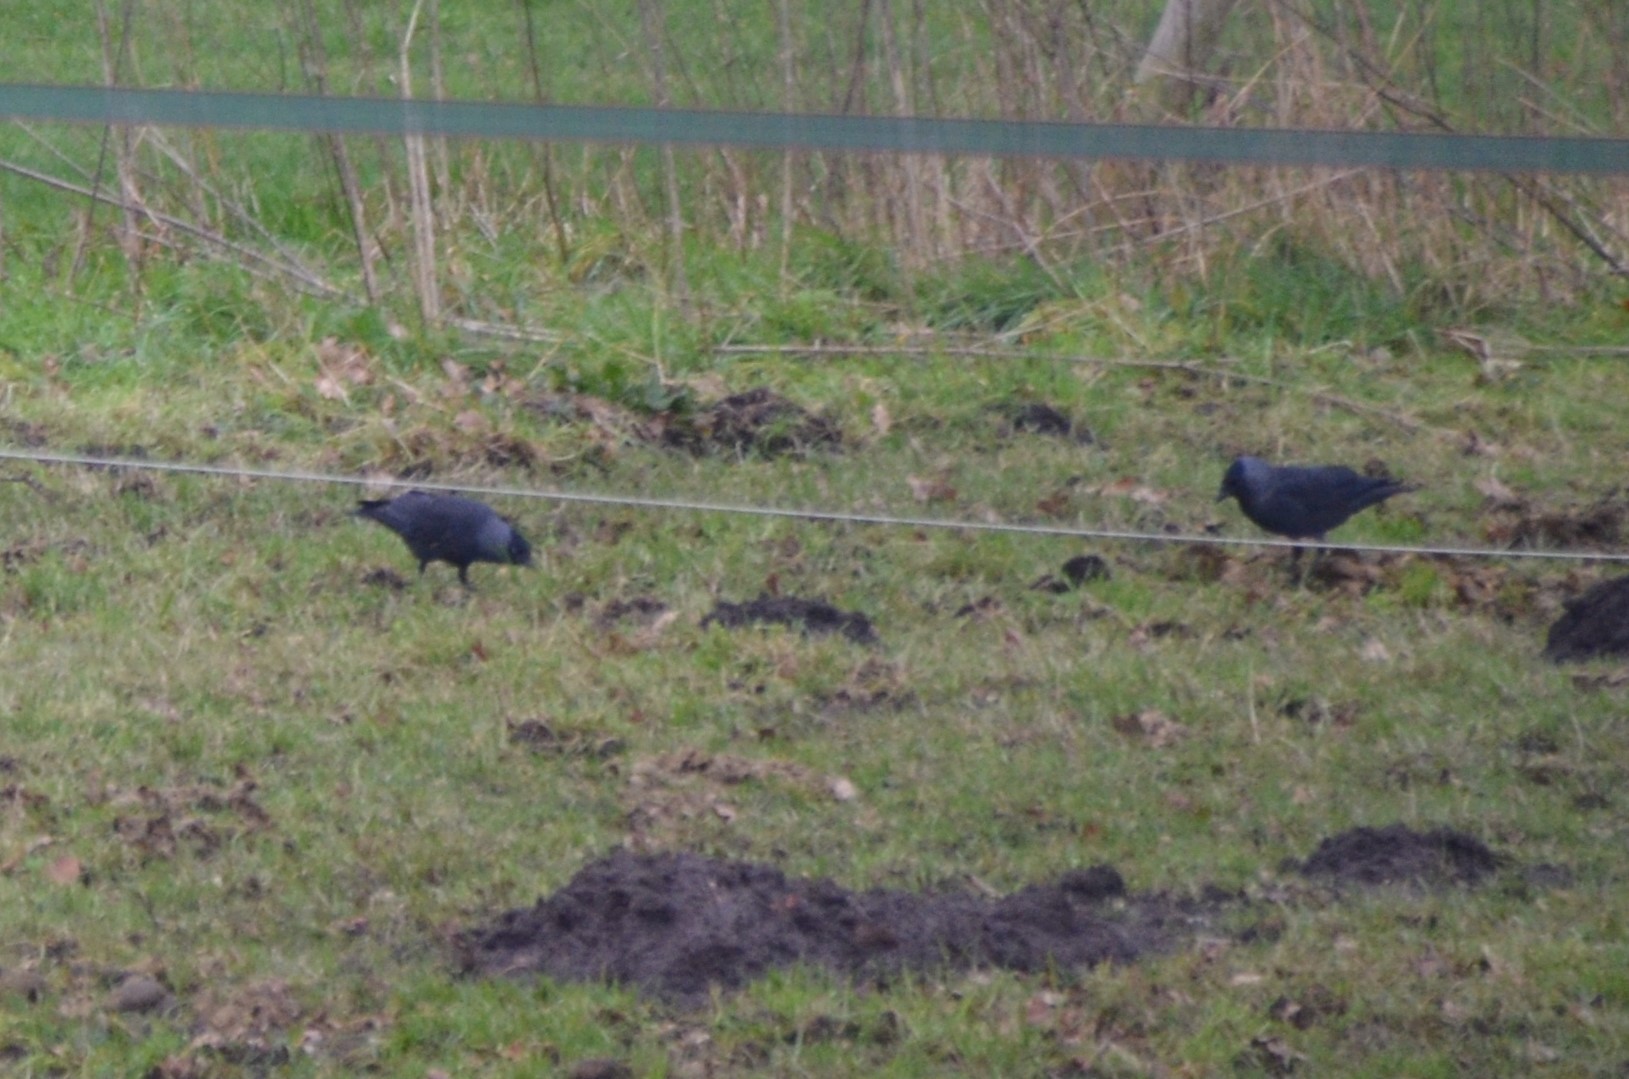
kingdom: Animalia
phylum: Chordata
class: Aves
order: Passeriformes
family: Corvidae
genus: Coloeus
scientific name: Coloeus monedula
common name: Western jackdaw
